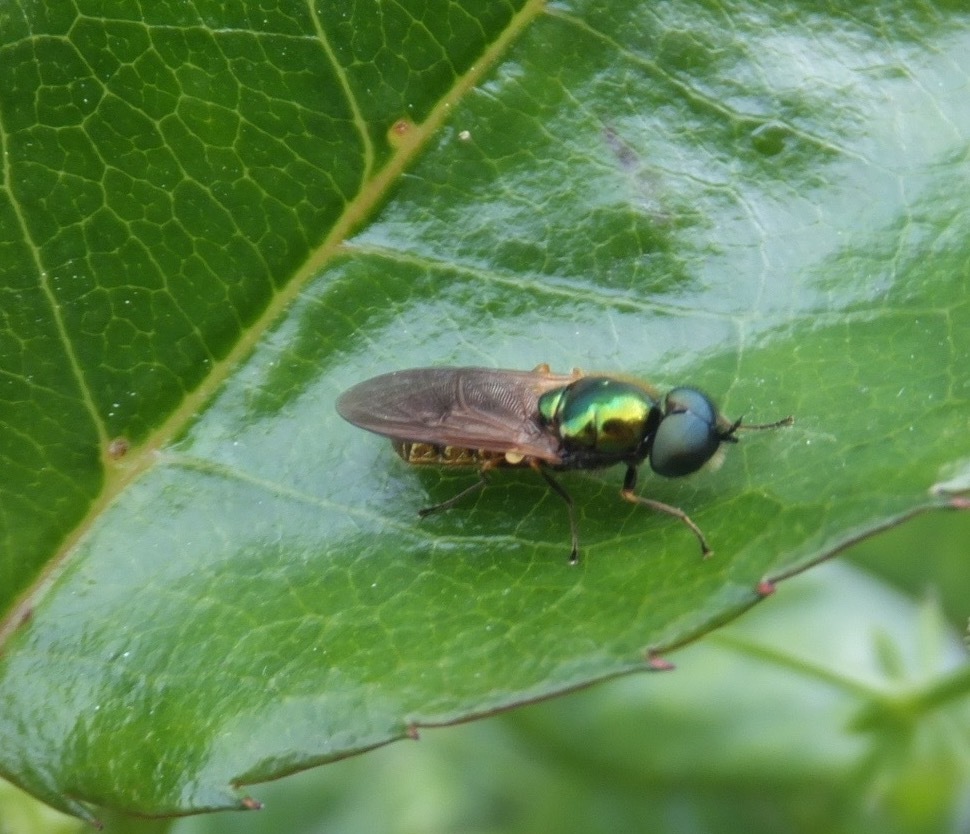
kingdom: Animalia
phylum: Arthropoda
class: Insecta
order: Diptera
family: Stratiomyidae
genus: Chloromyia
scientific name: Chloromyia formosa
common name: Soldier fly
